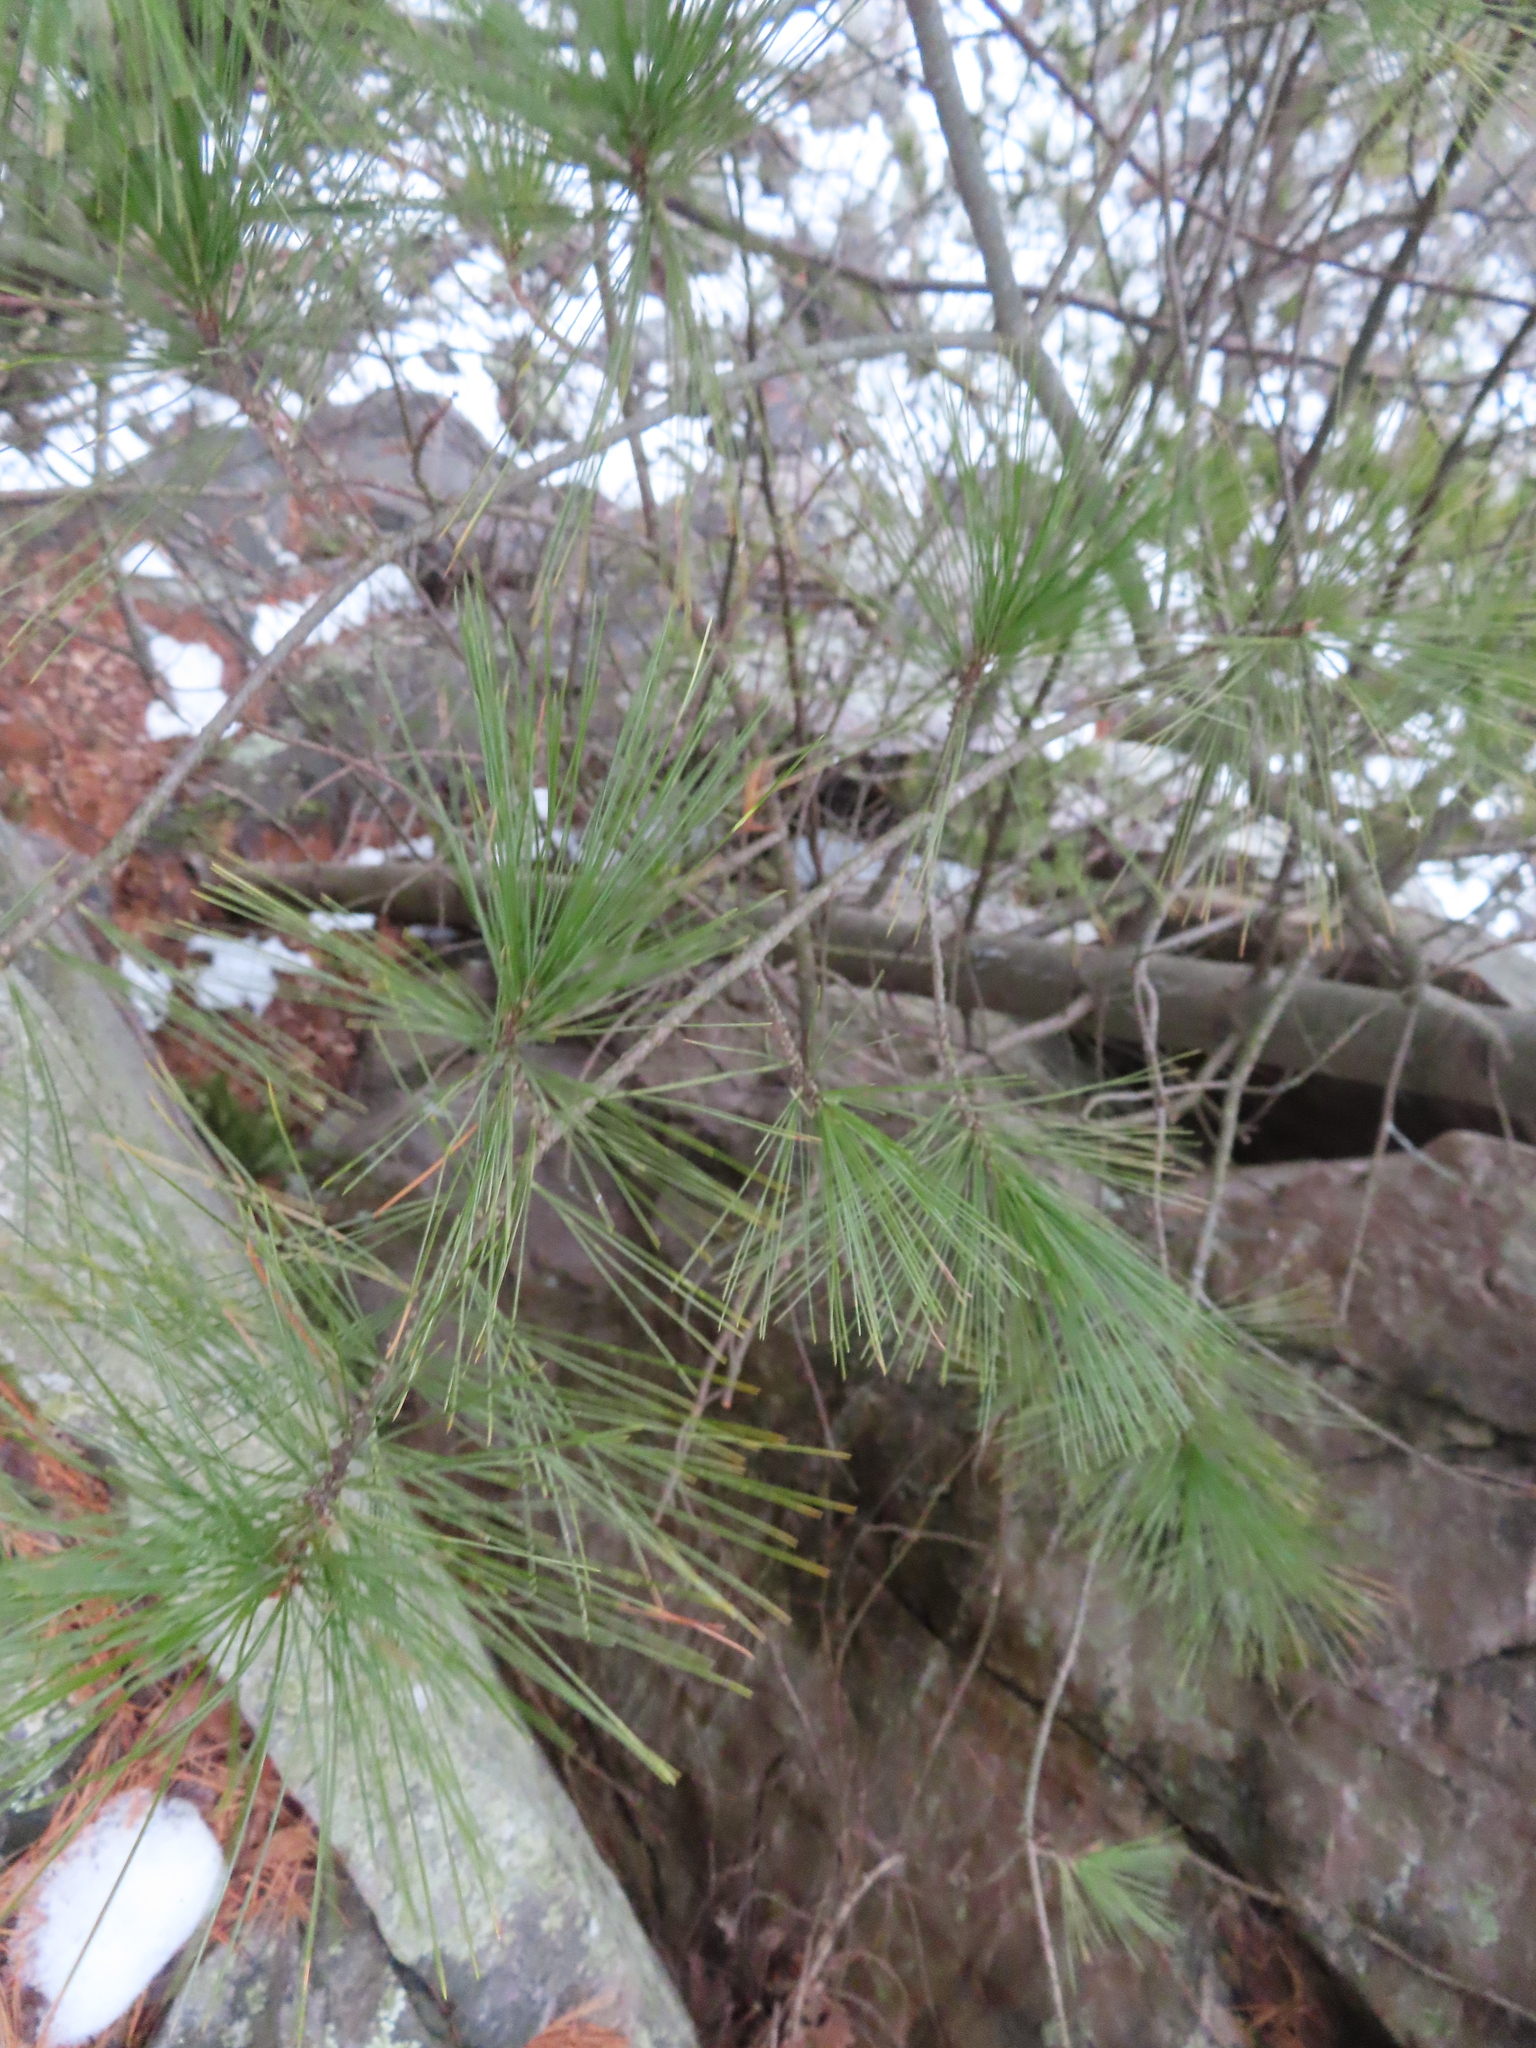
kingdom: Plantae
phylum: Tracheophyta
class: Pinopsida
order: Pinales
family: Pinaceae
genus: Pinus
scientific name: Pinus strobus
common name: Weymouth pine
